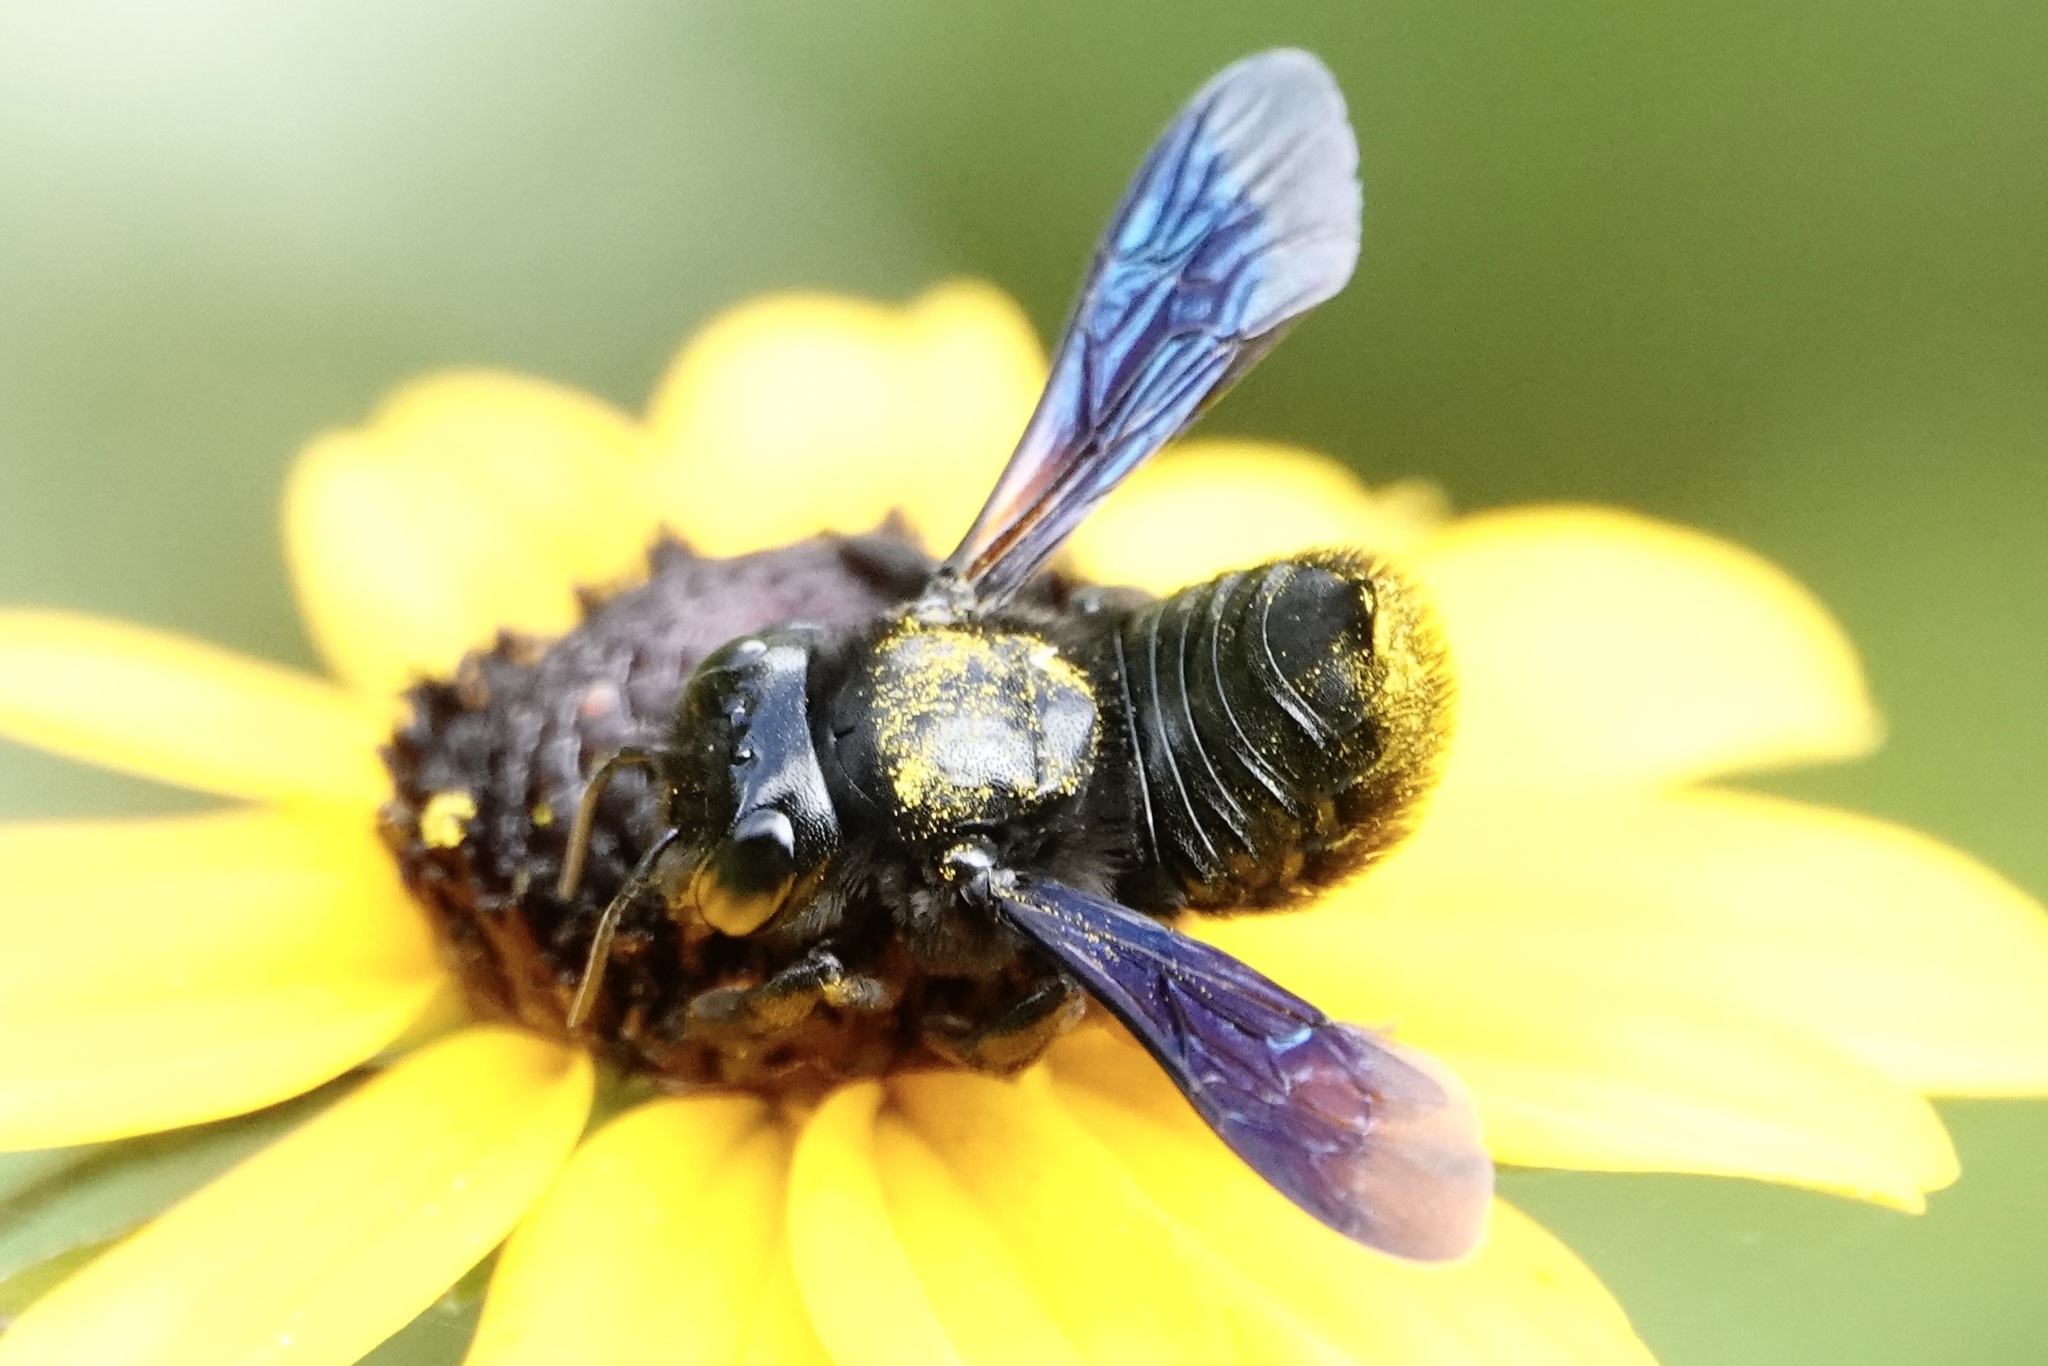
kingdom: Animalia
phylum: Arthropoda
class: Insecta
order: Hymenoptera
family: Megachilidae
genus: Megachile
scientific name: Megachile xylocopoides
